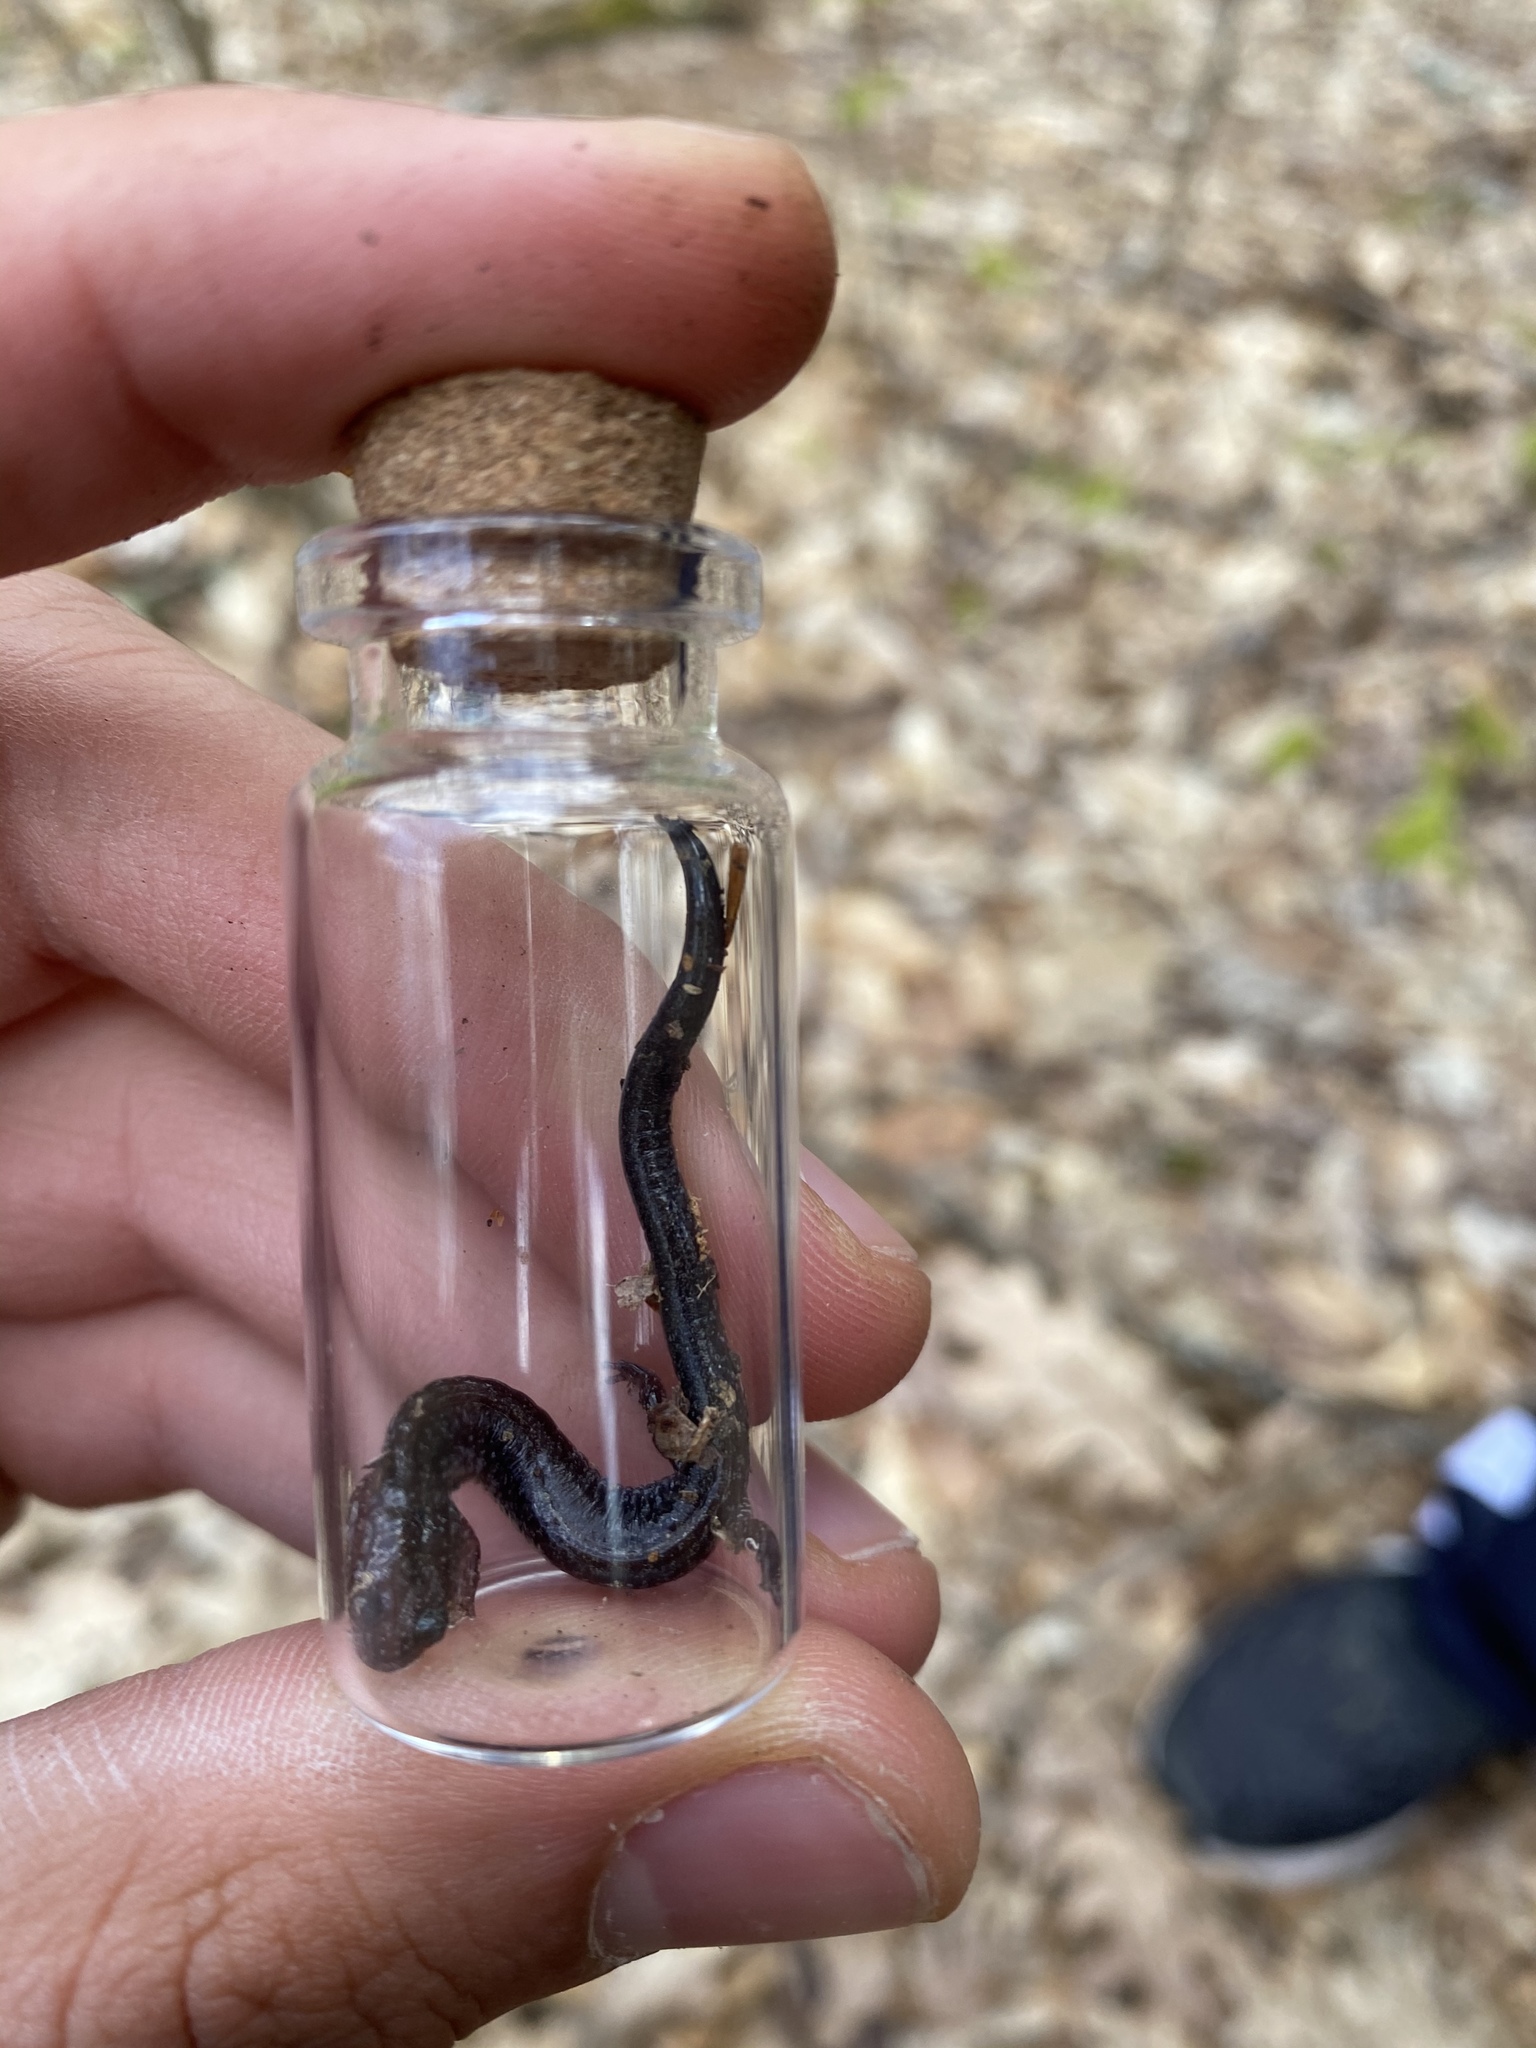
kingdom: Animalia
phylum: Chordata
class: Amphibia
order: Caudata
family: Plethodontidae
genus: Plethodon
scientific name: Plethodon cinereus
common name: Redback salamander
